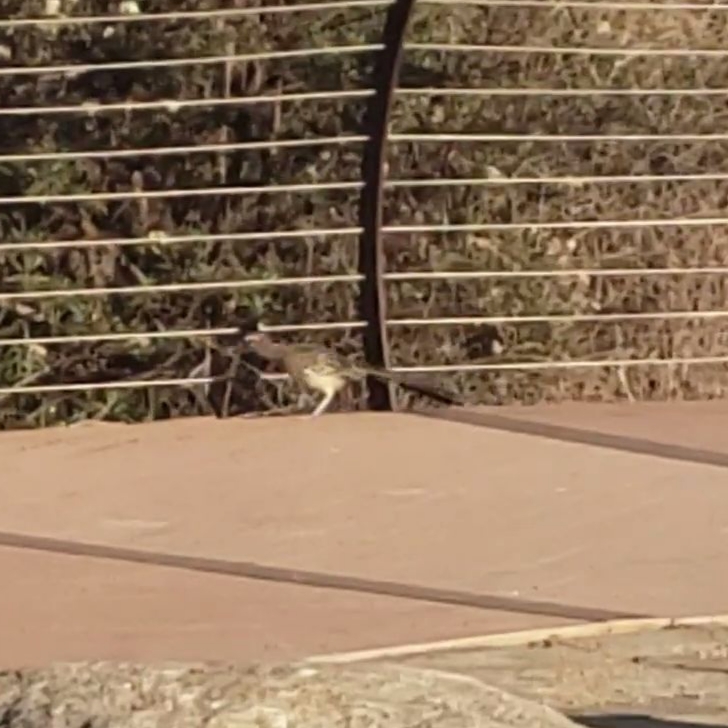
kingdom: Animalia
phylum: Chordata
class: Aves
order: Cuculiformes
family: Cuculidae
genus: Geococcyx
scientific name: Geococcyx californianus
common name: Greater roadrunner
